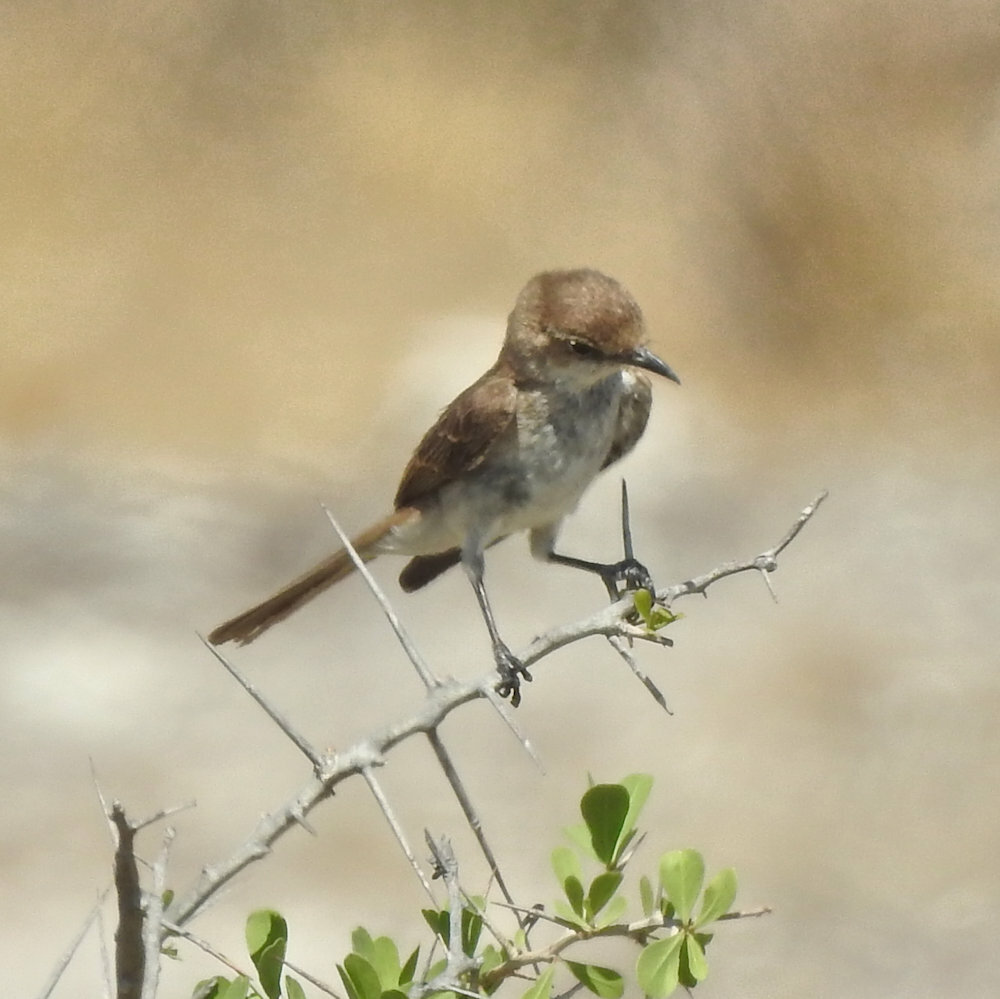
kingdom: Animalia
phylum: Chordata
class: Aves
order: Passeriformes
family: Muscicapidae
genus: Bradornis
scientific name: Bradornis mariquensis
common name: Marico flycatcher
